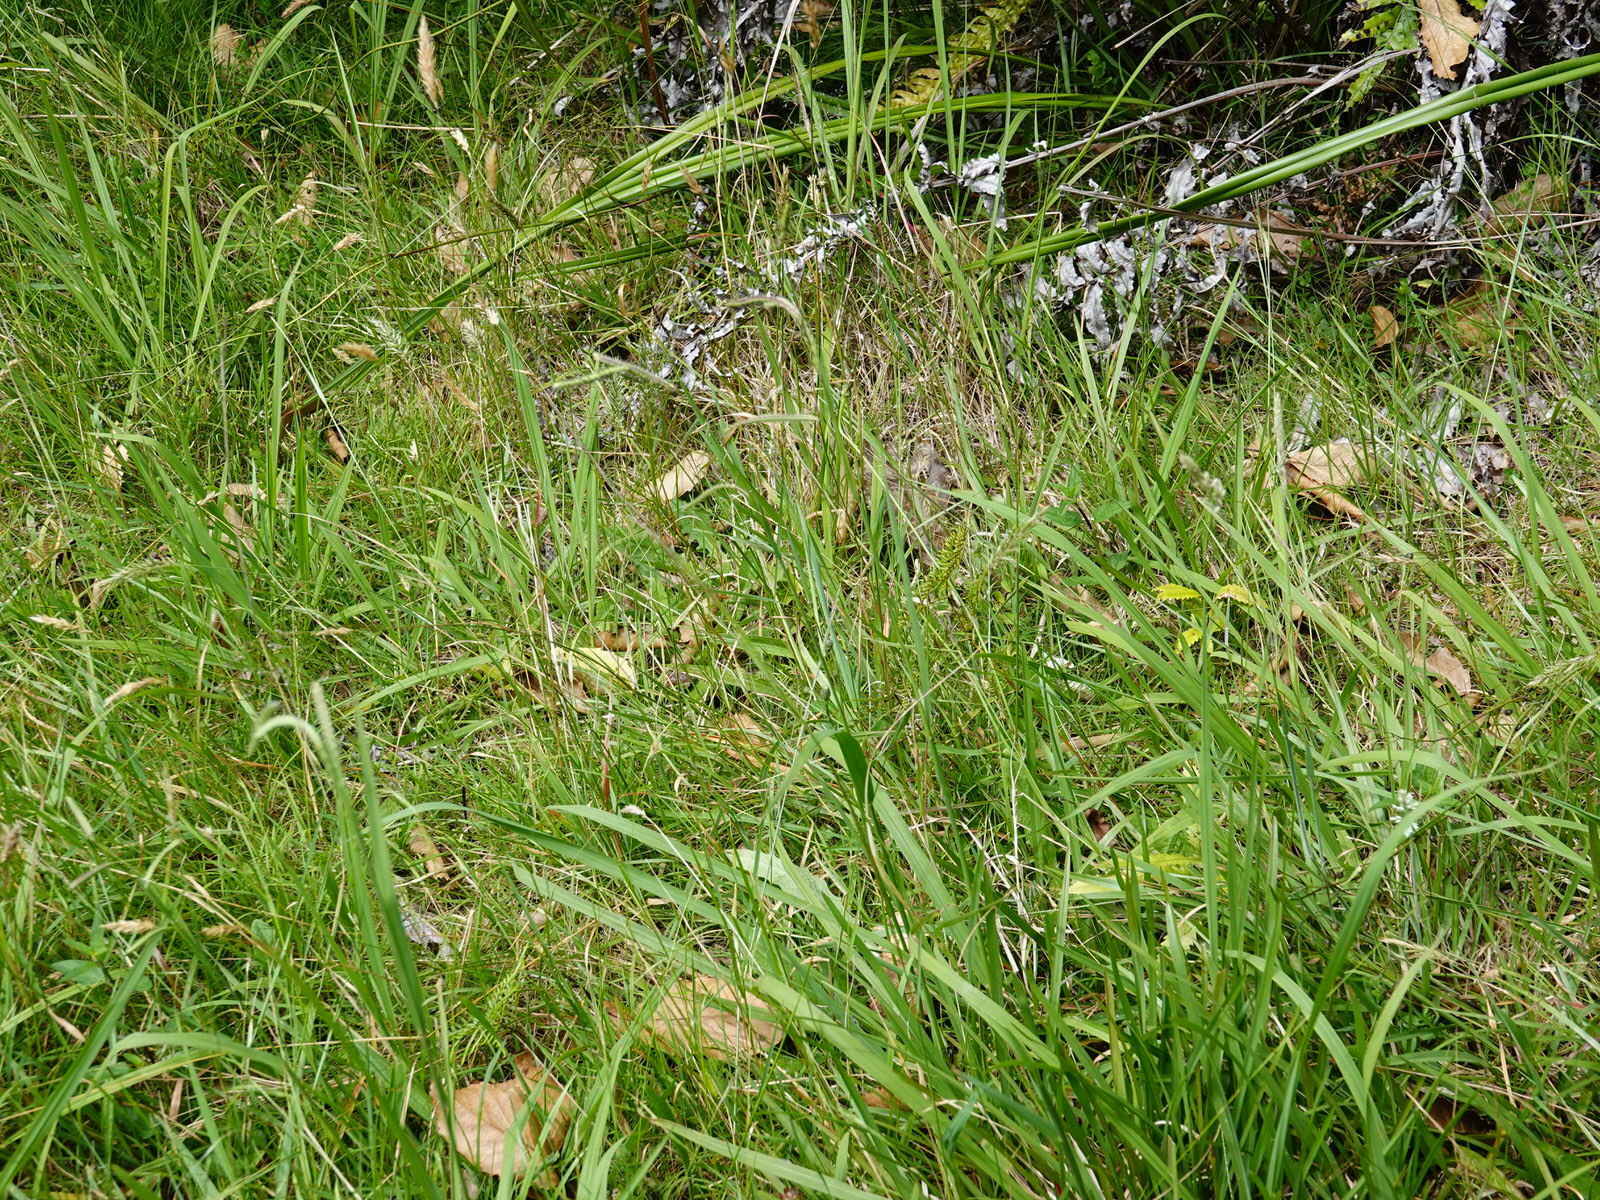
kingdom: Plantae
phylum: Tracheophyta
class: Liliopsida
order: Poales
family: Poaceae
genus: Paspalum
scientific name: Paspalum dilatatum
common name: Dallisgrass
